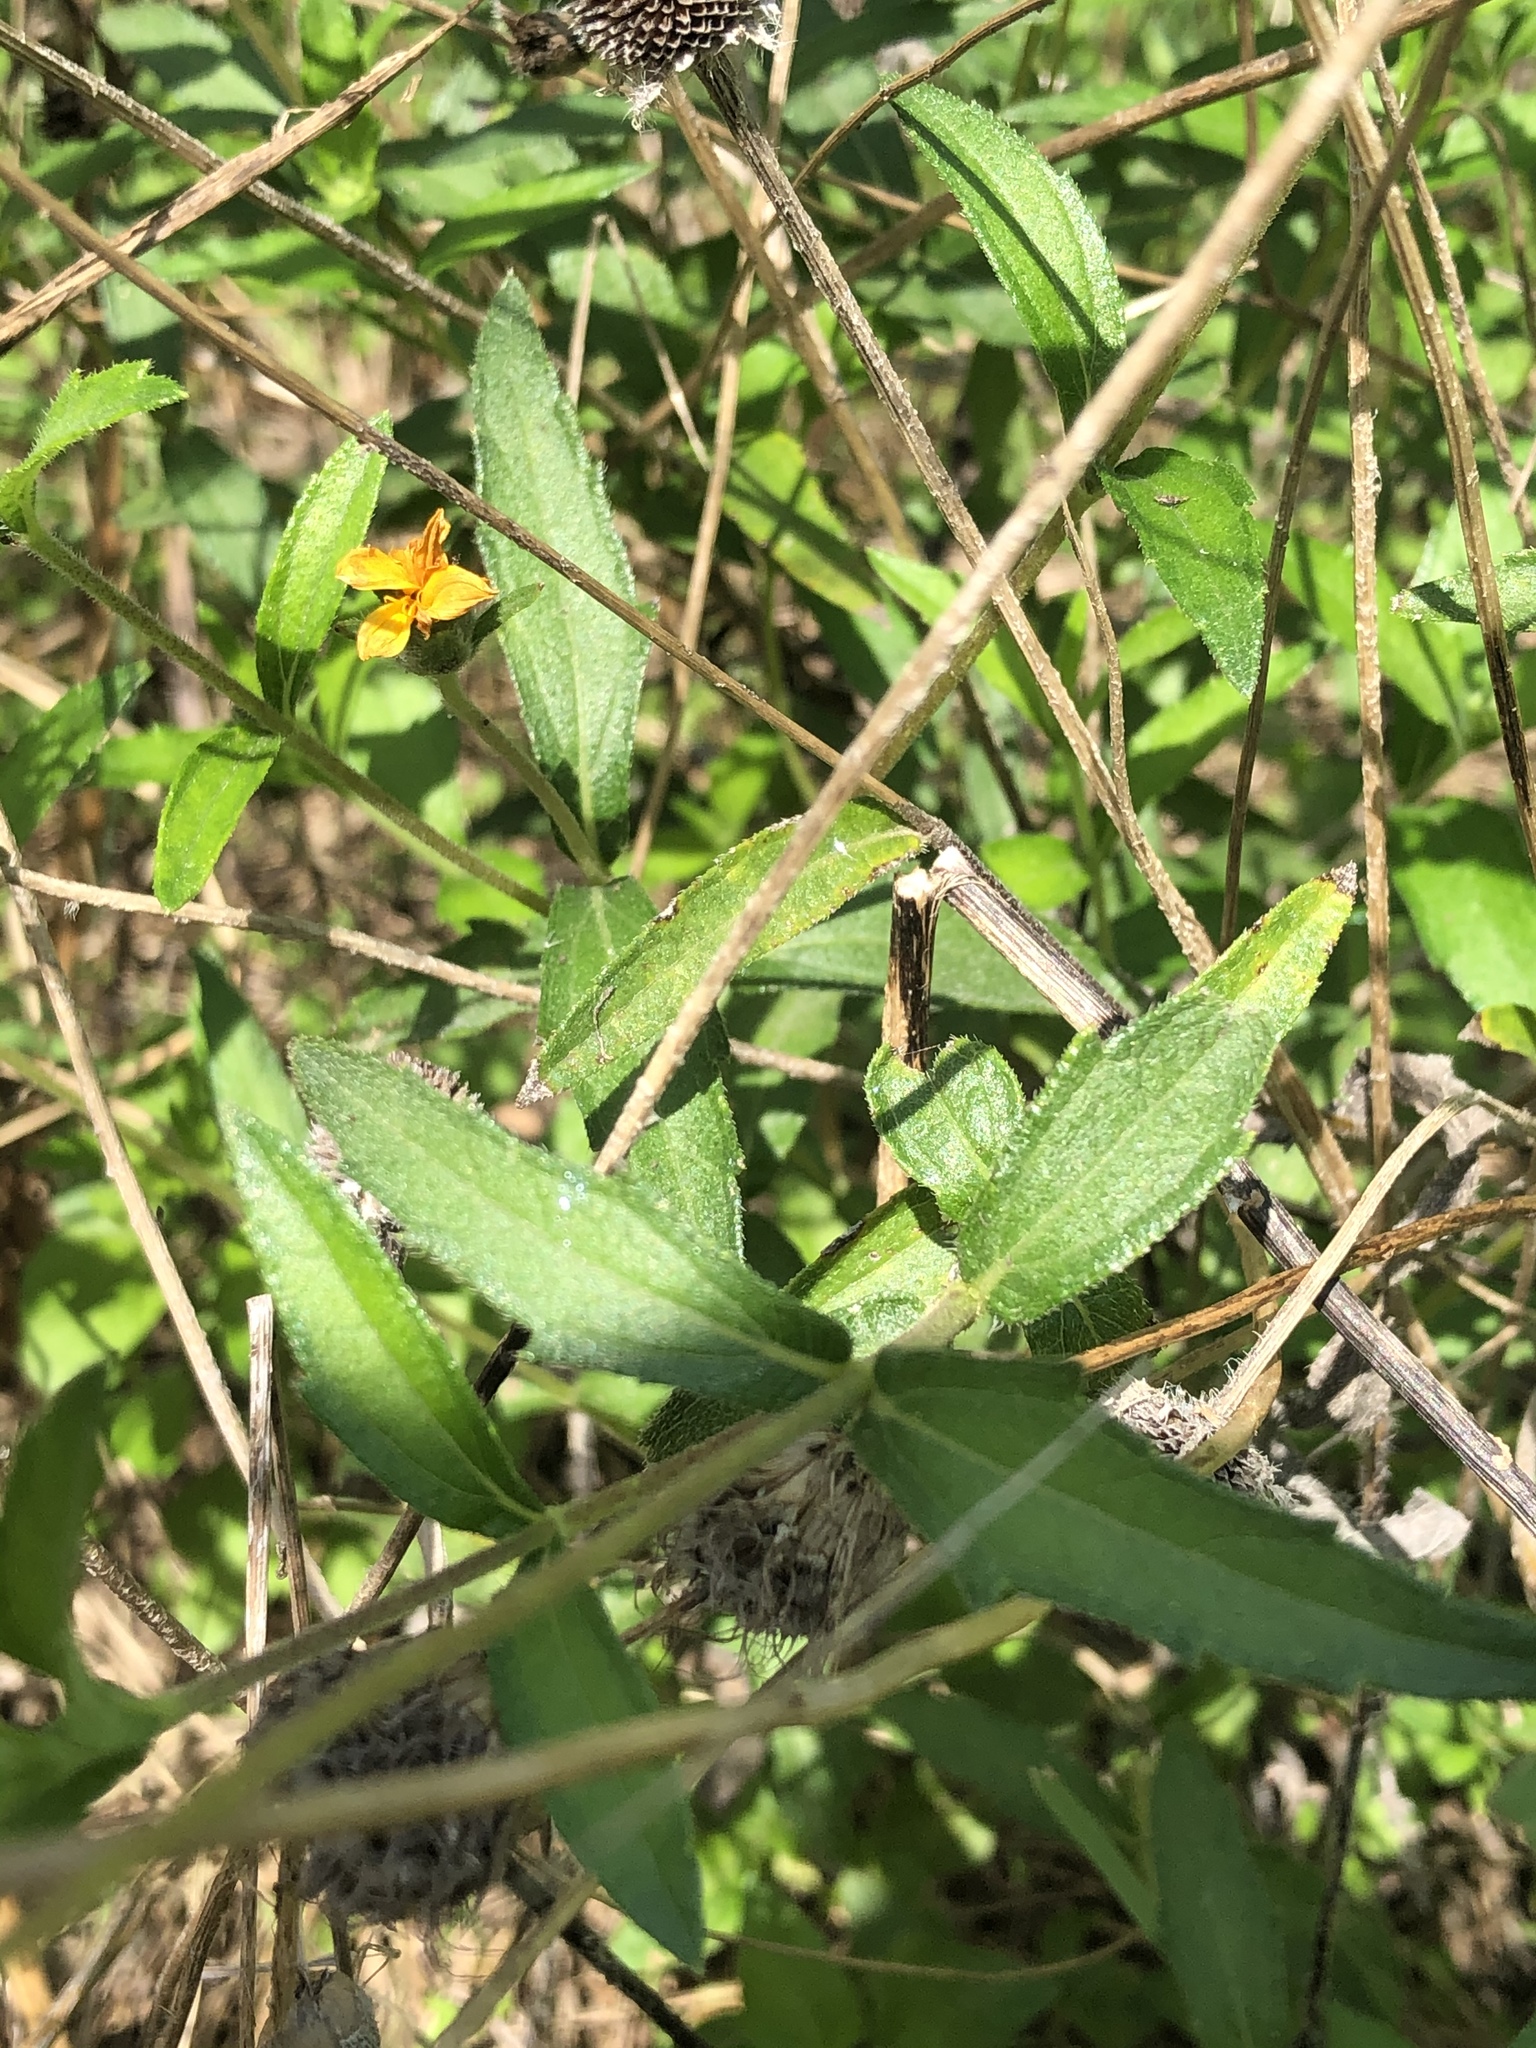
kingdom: Plantae
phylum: Tracheophyta
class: Magnoliopsida
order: Asterales
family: Asteraceae
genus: Wedelia
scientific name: Wedelia acapulcensis
